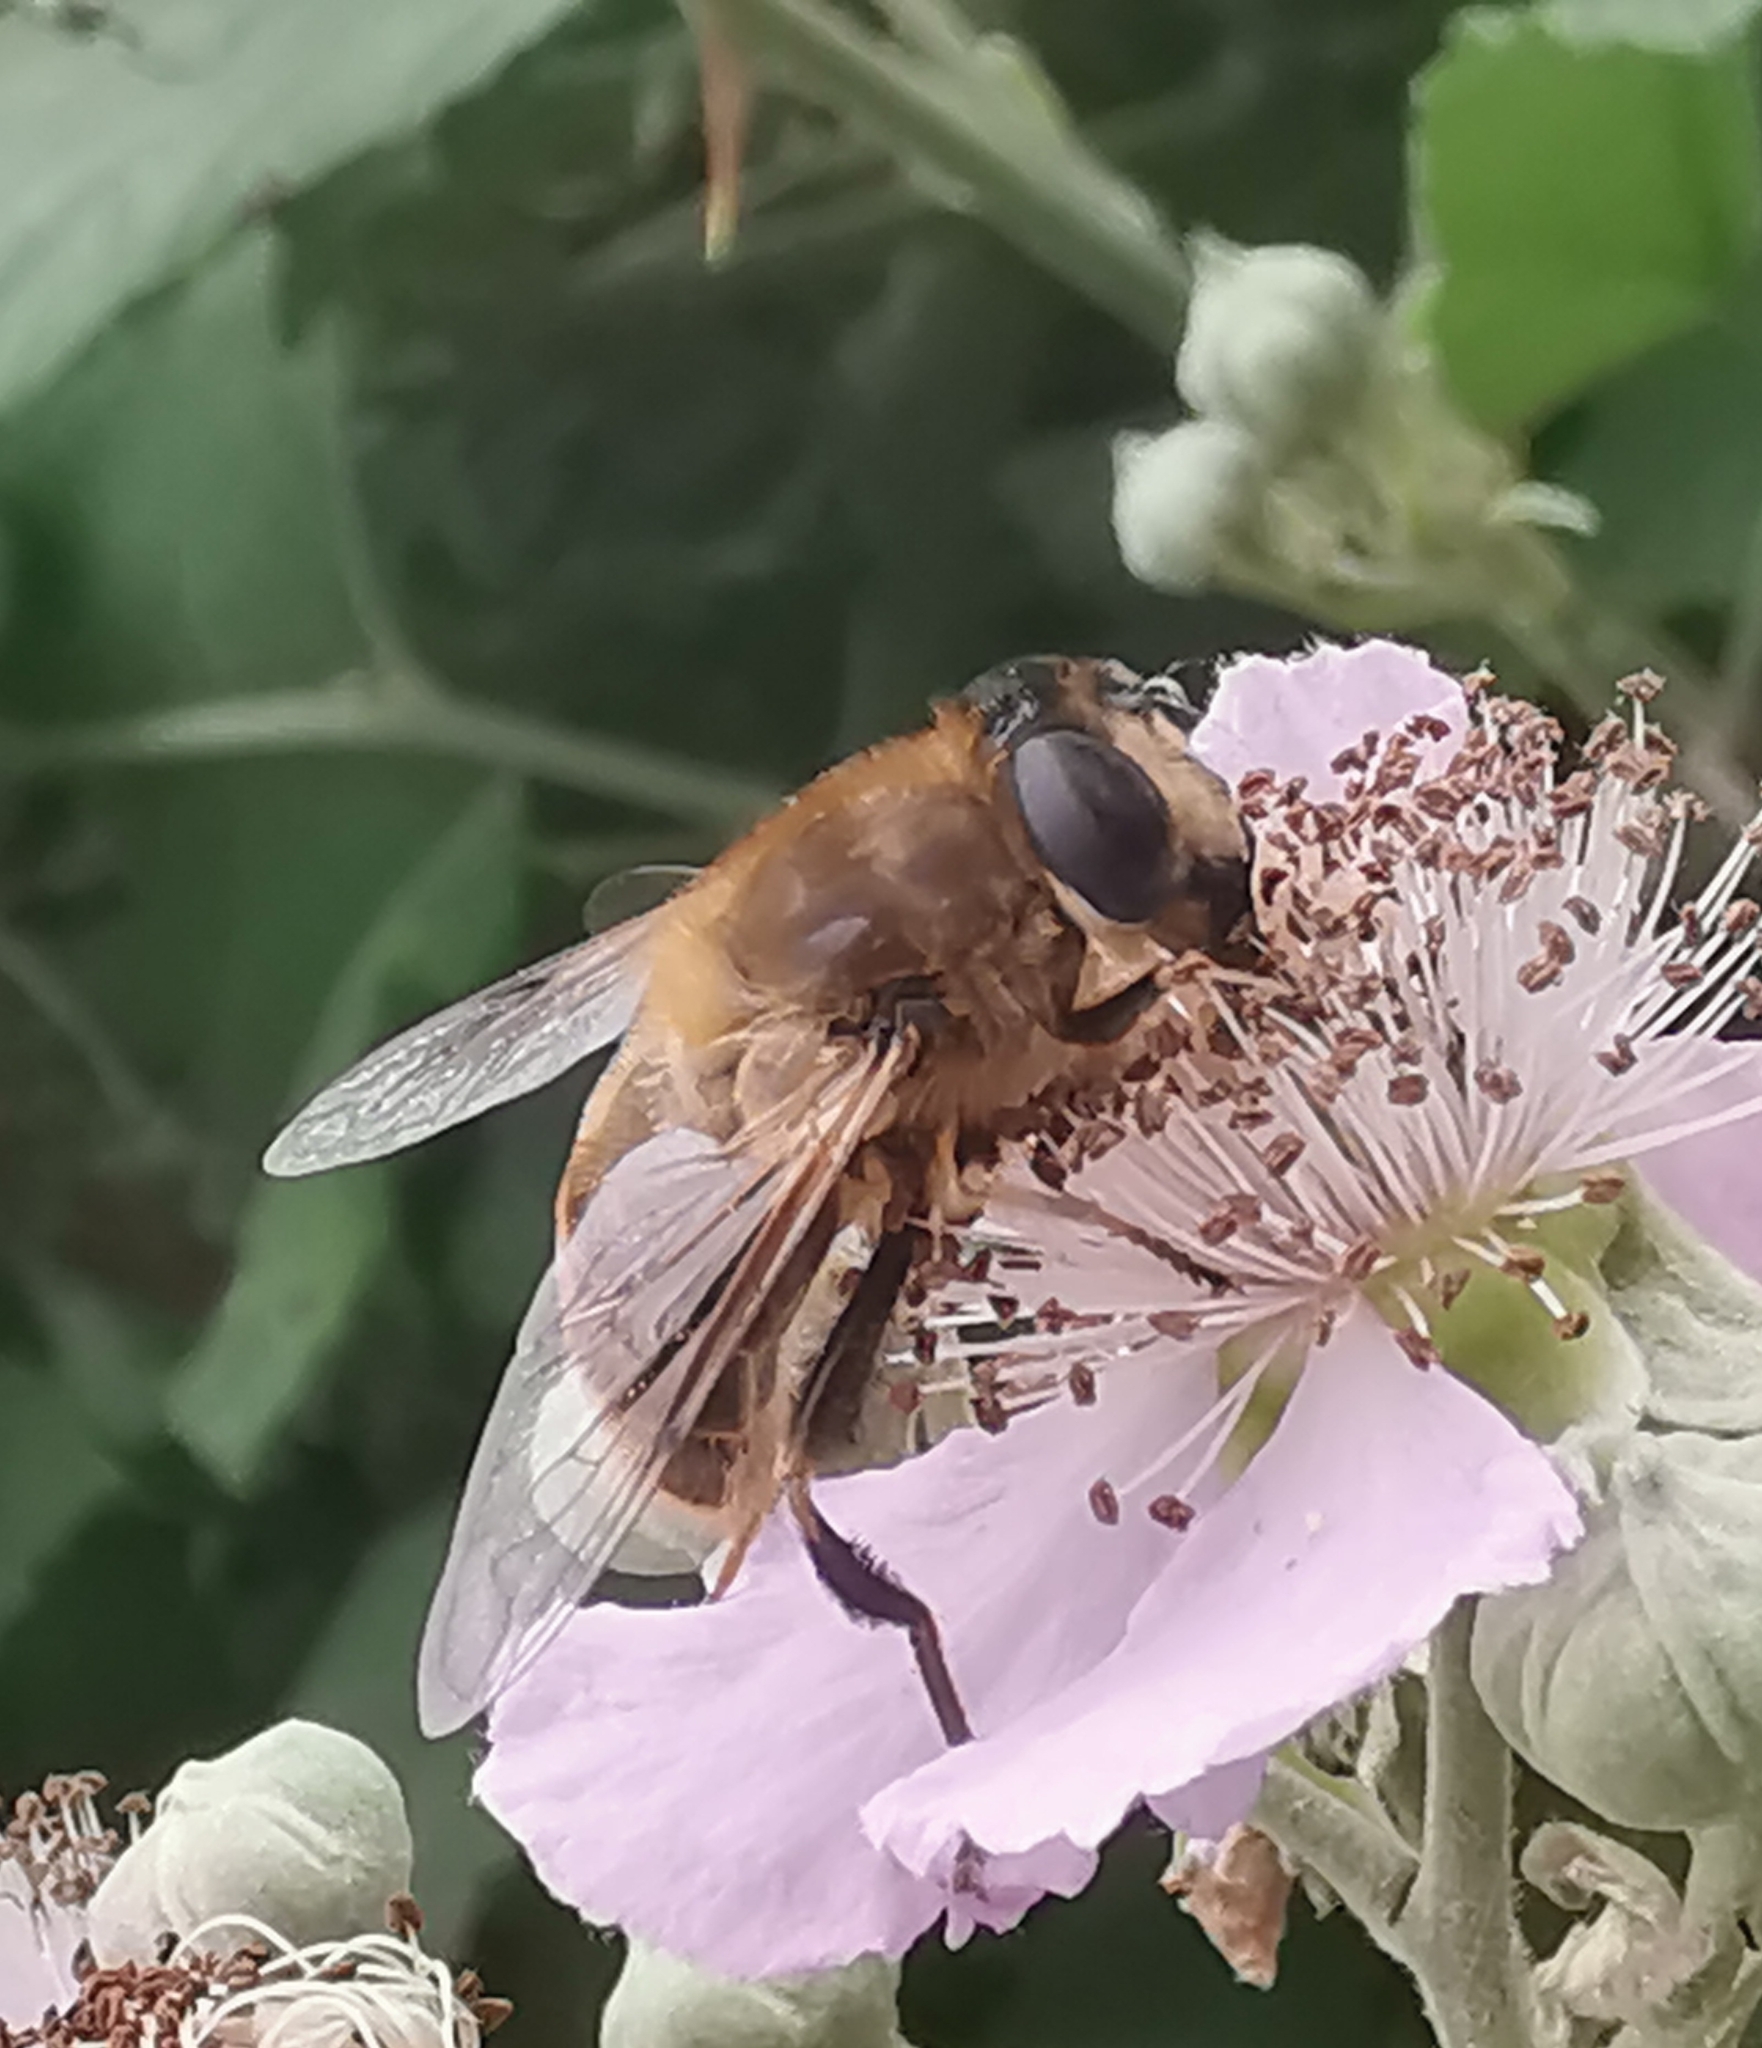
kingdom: Animalia
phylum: Arthropoda
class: Insecta
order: Diptera
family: Syrphidae
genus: Eristalis
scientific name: Eristalis tenax
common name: Drone fly
